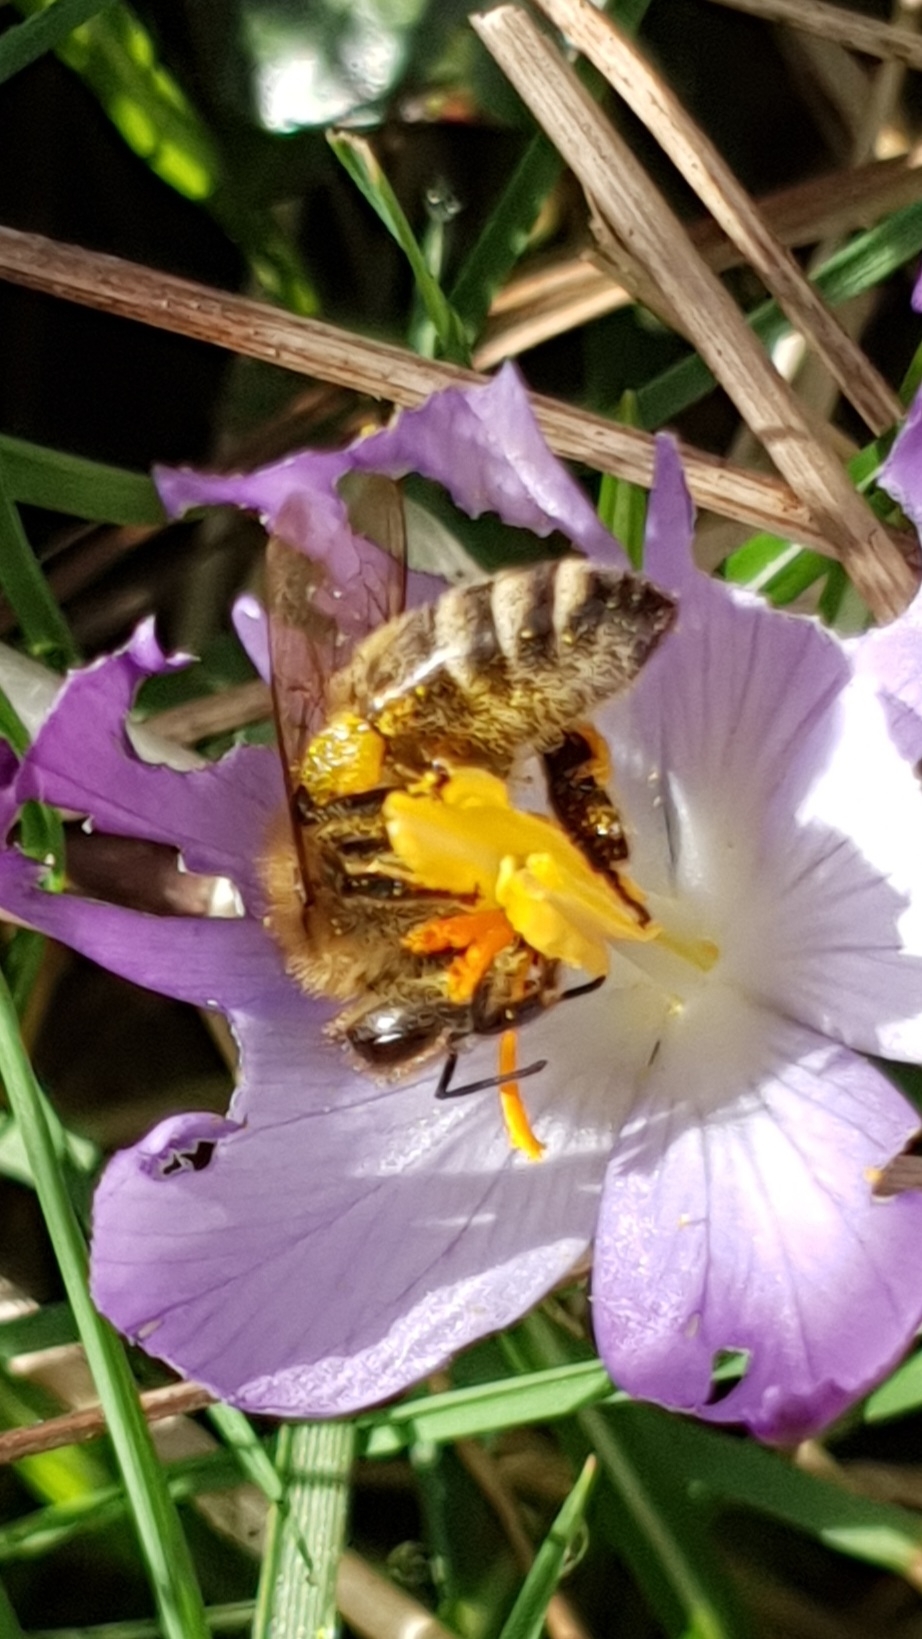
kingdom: Animalia
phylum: Arthropoda
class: Insecta
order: Hymenoptera
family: Apidae
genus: Apis
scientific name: Apis mellifera
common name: Honey bee
